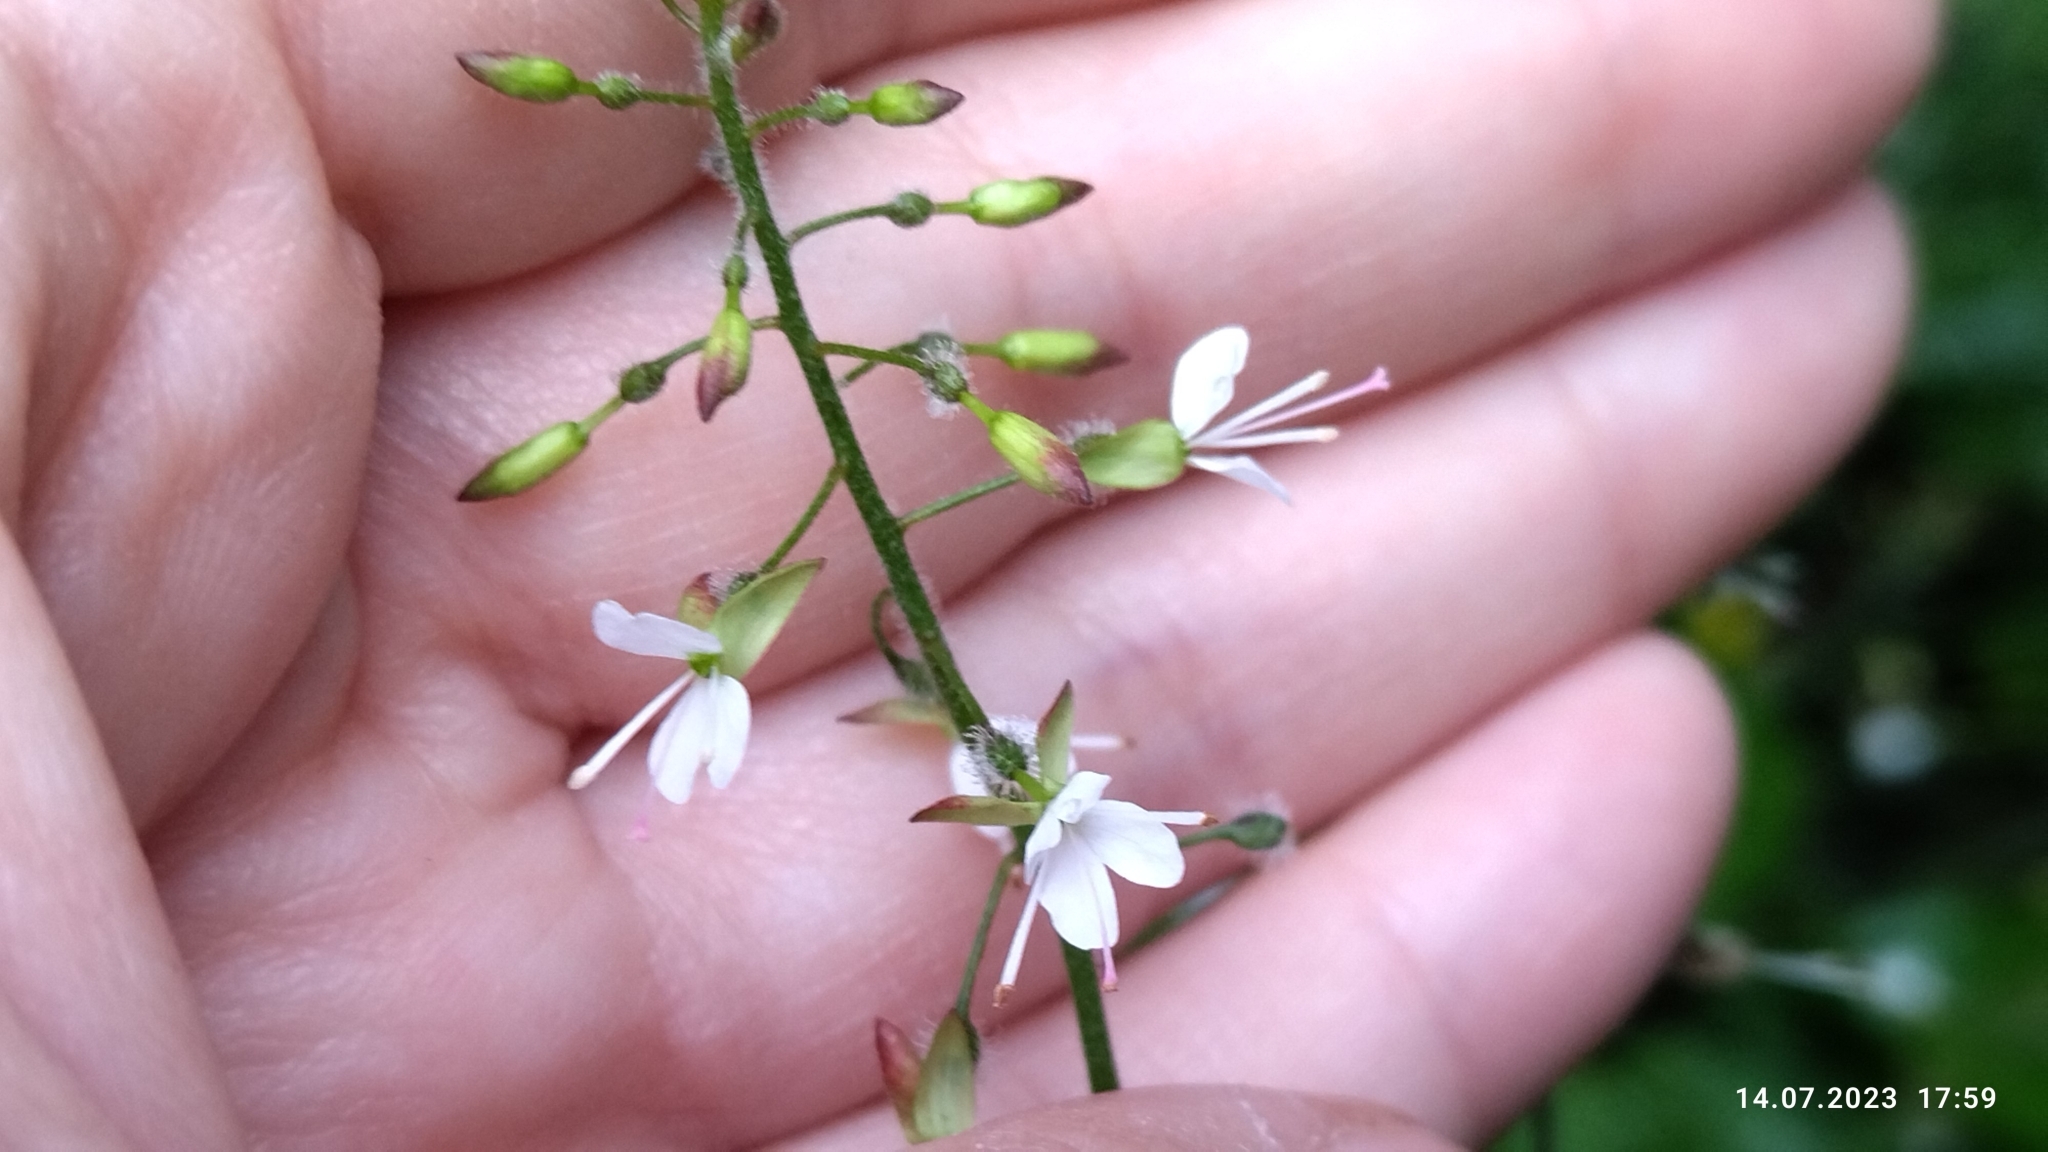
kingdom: Plantae
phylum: Tracheophyta
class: Magnoliopsida
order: Myrtales
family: Onagraceae
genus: Circaea
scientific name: Circaea lutetiana
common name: Enchanter's-nightshade
